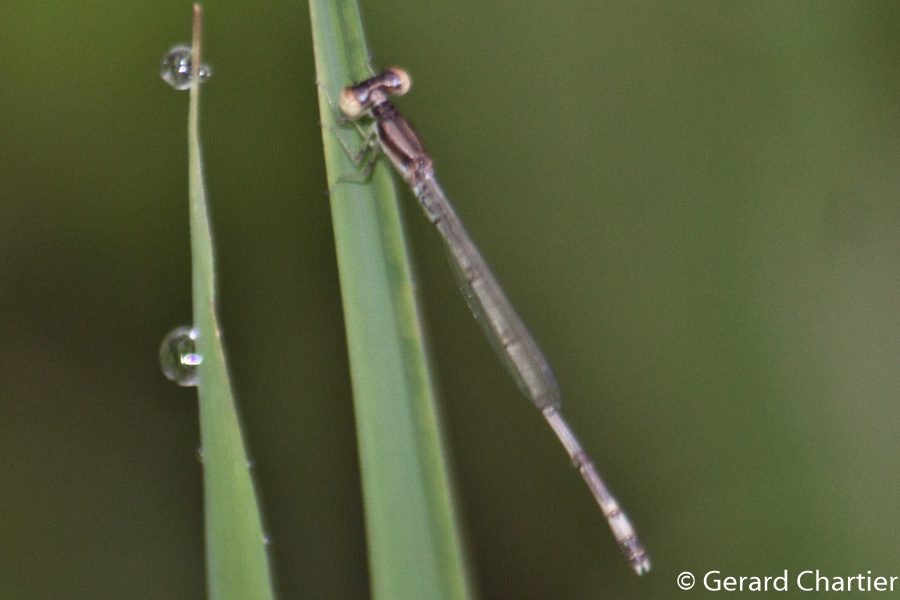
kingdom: Animalia
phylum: Arthropoda
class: Insecta
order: Odonata
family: Coenagrionidae
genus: Agriocnemis
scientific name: Agriocnemis nana
